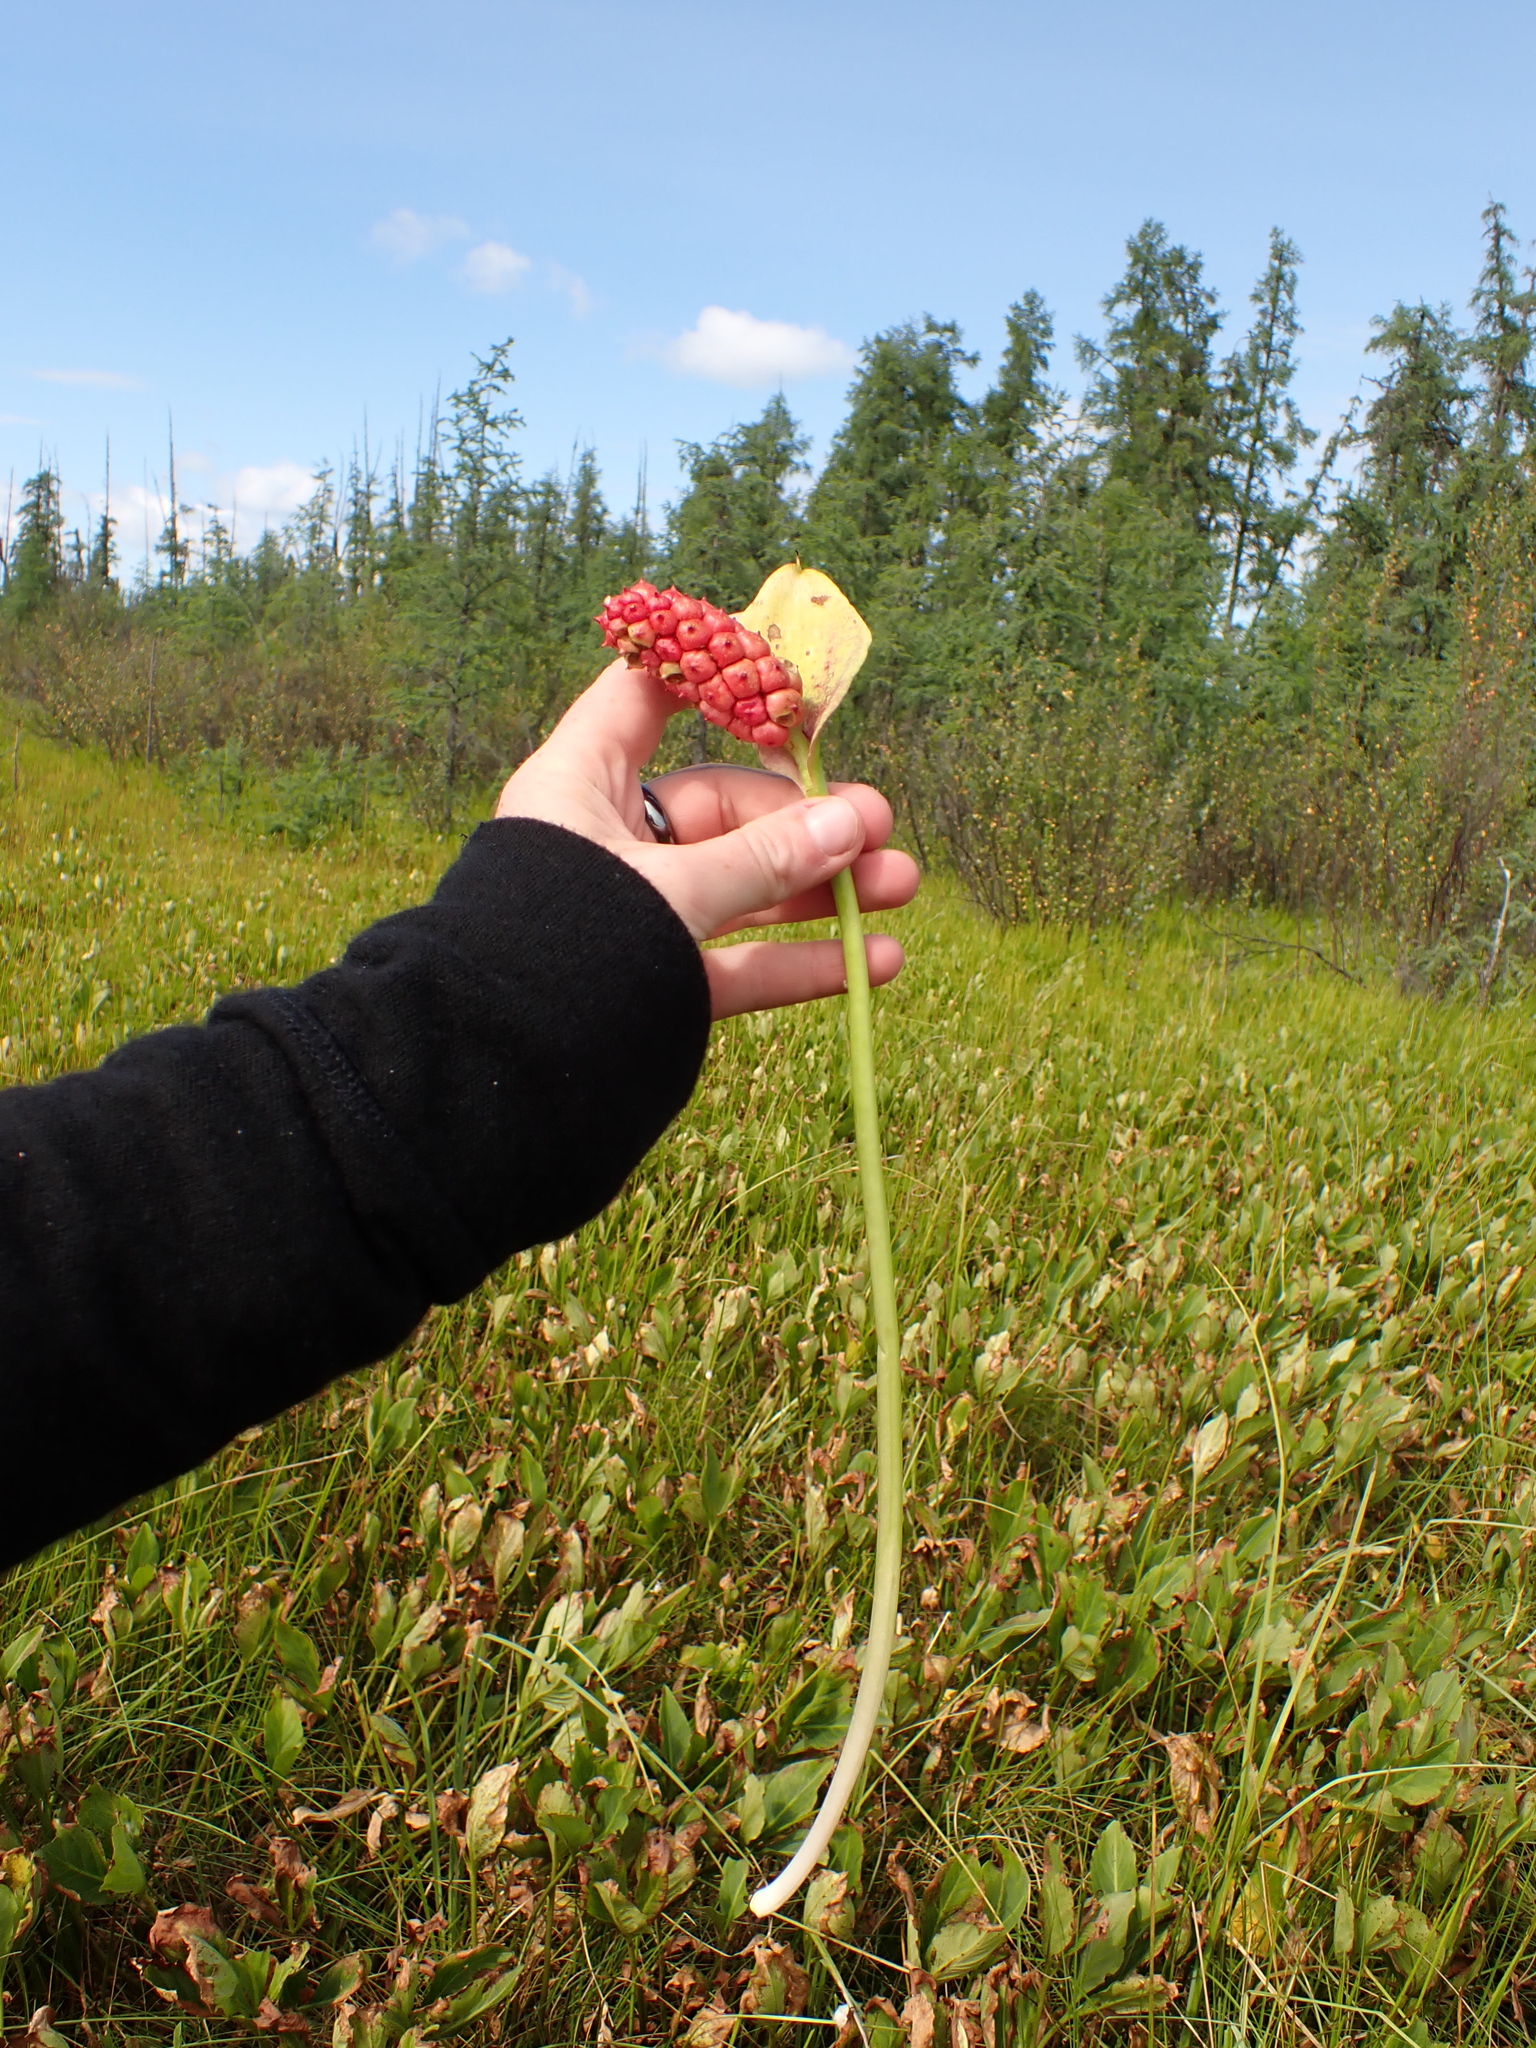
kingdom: Plantae
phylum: Tracheophyta
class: Liliopsida
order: Alismatales
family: Araceae
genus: Calla
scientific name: Calla palustris
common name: Bog arum
